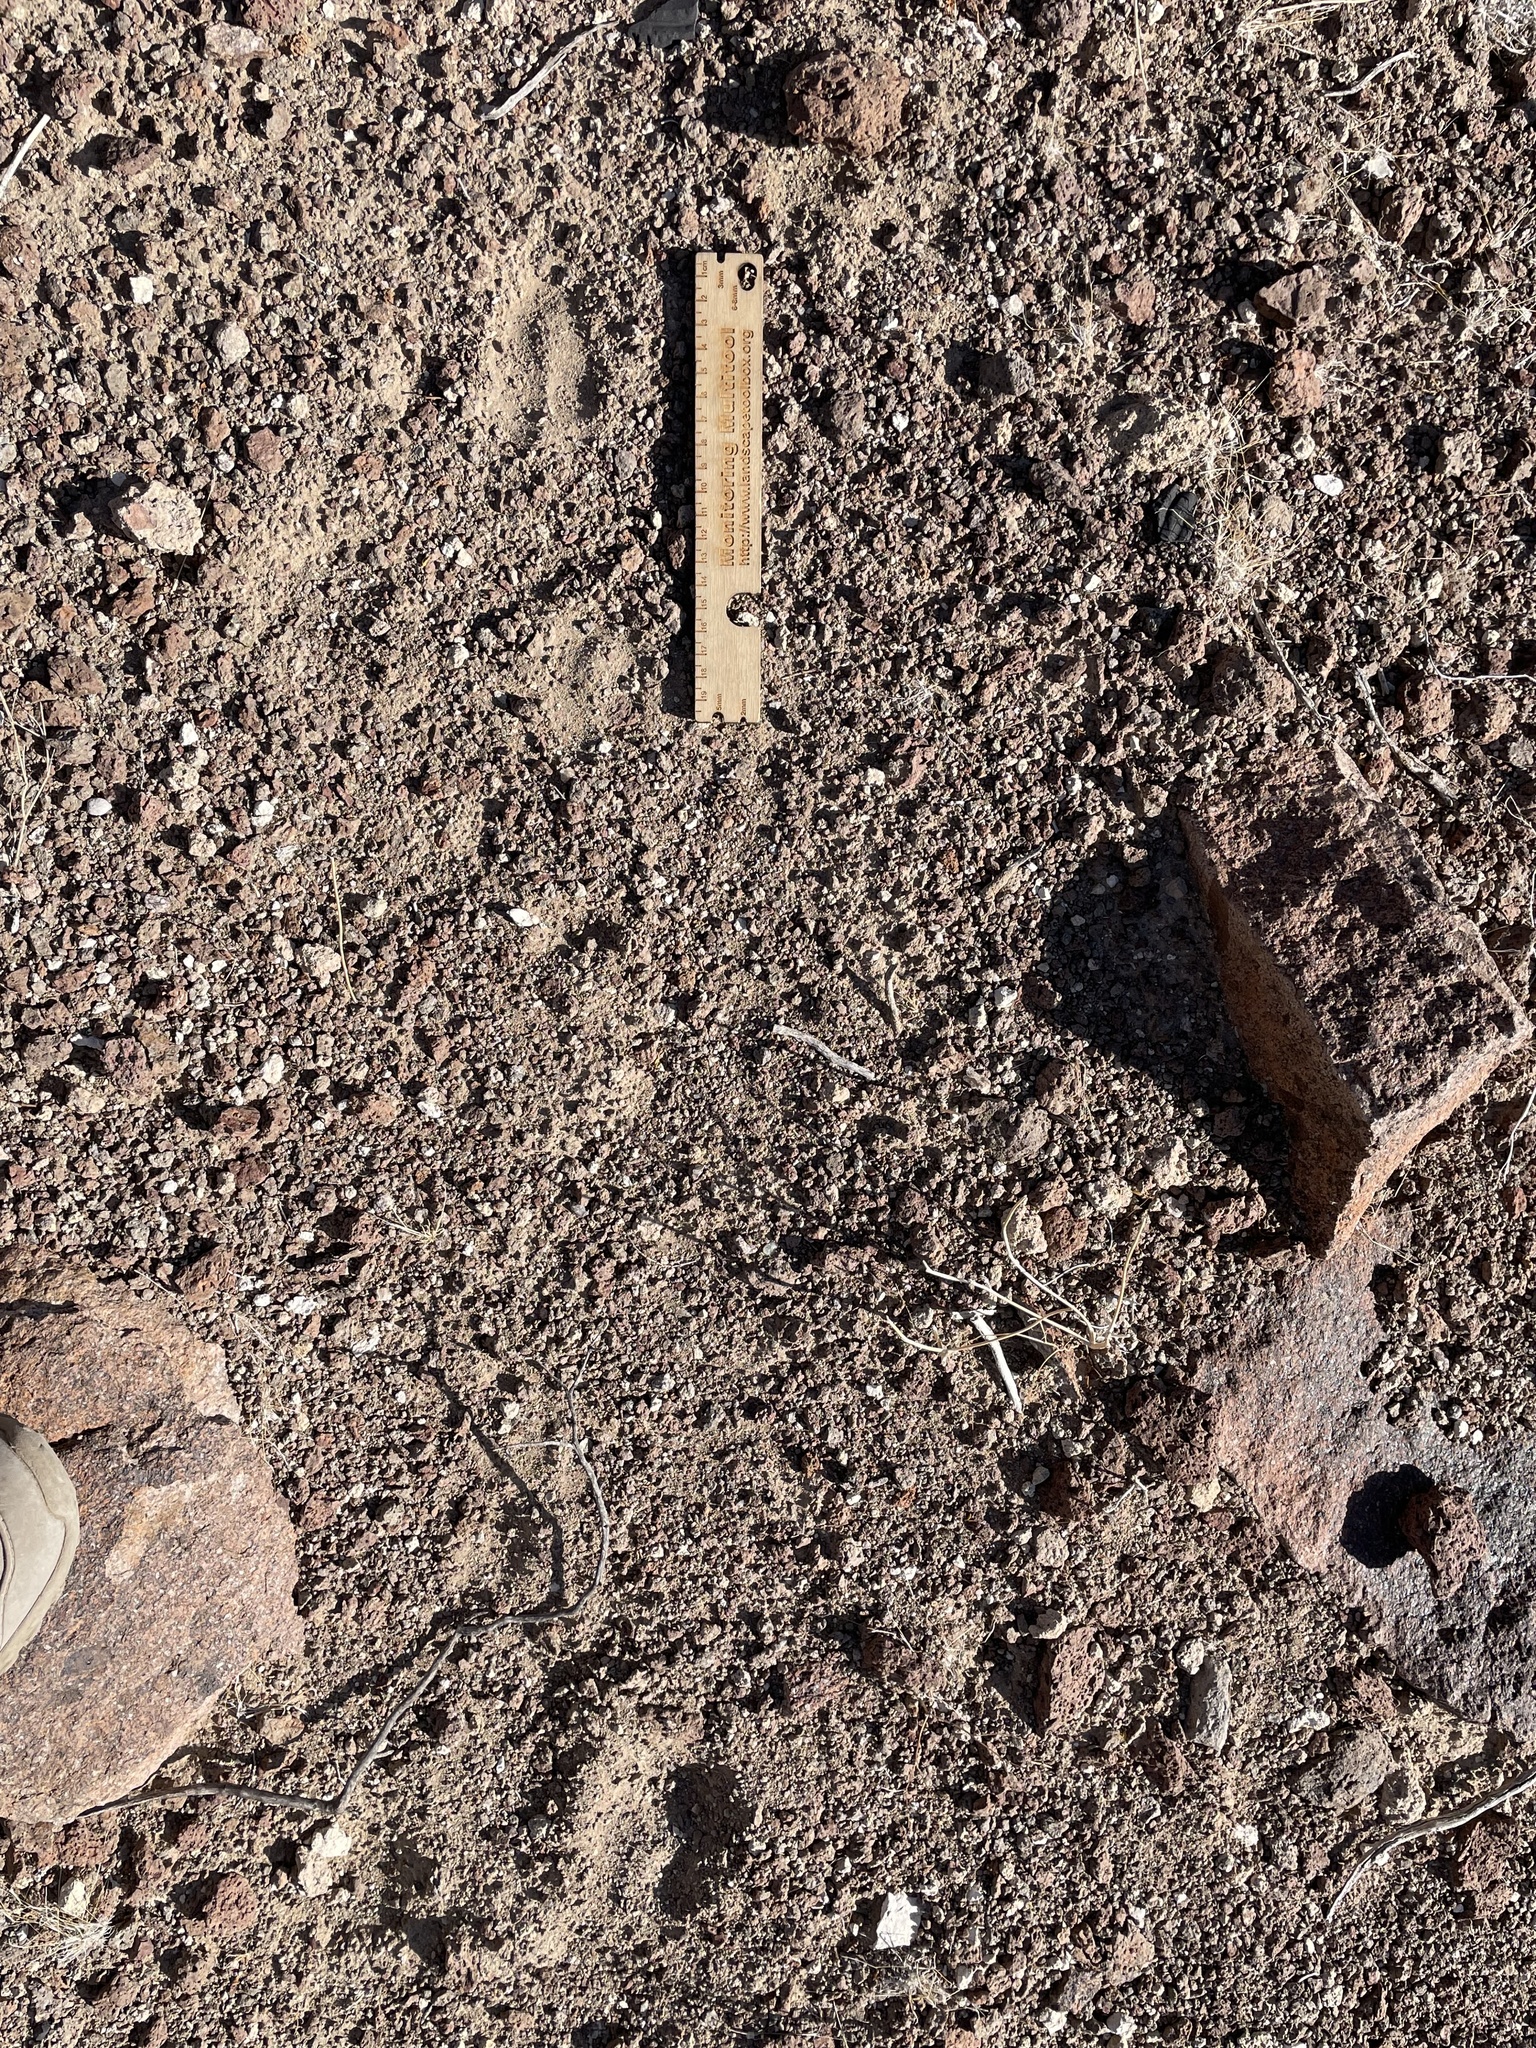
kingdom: Animalia
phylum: Chordata
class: Mammalia
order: Artiodactyla
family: Bovidae
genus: Ovis
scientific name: Ovis canadensis
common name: Bighorn sheep
